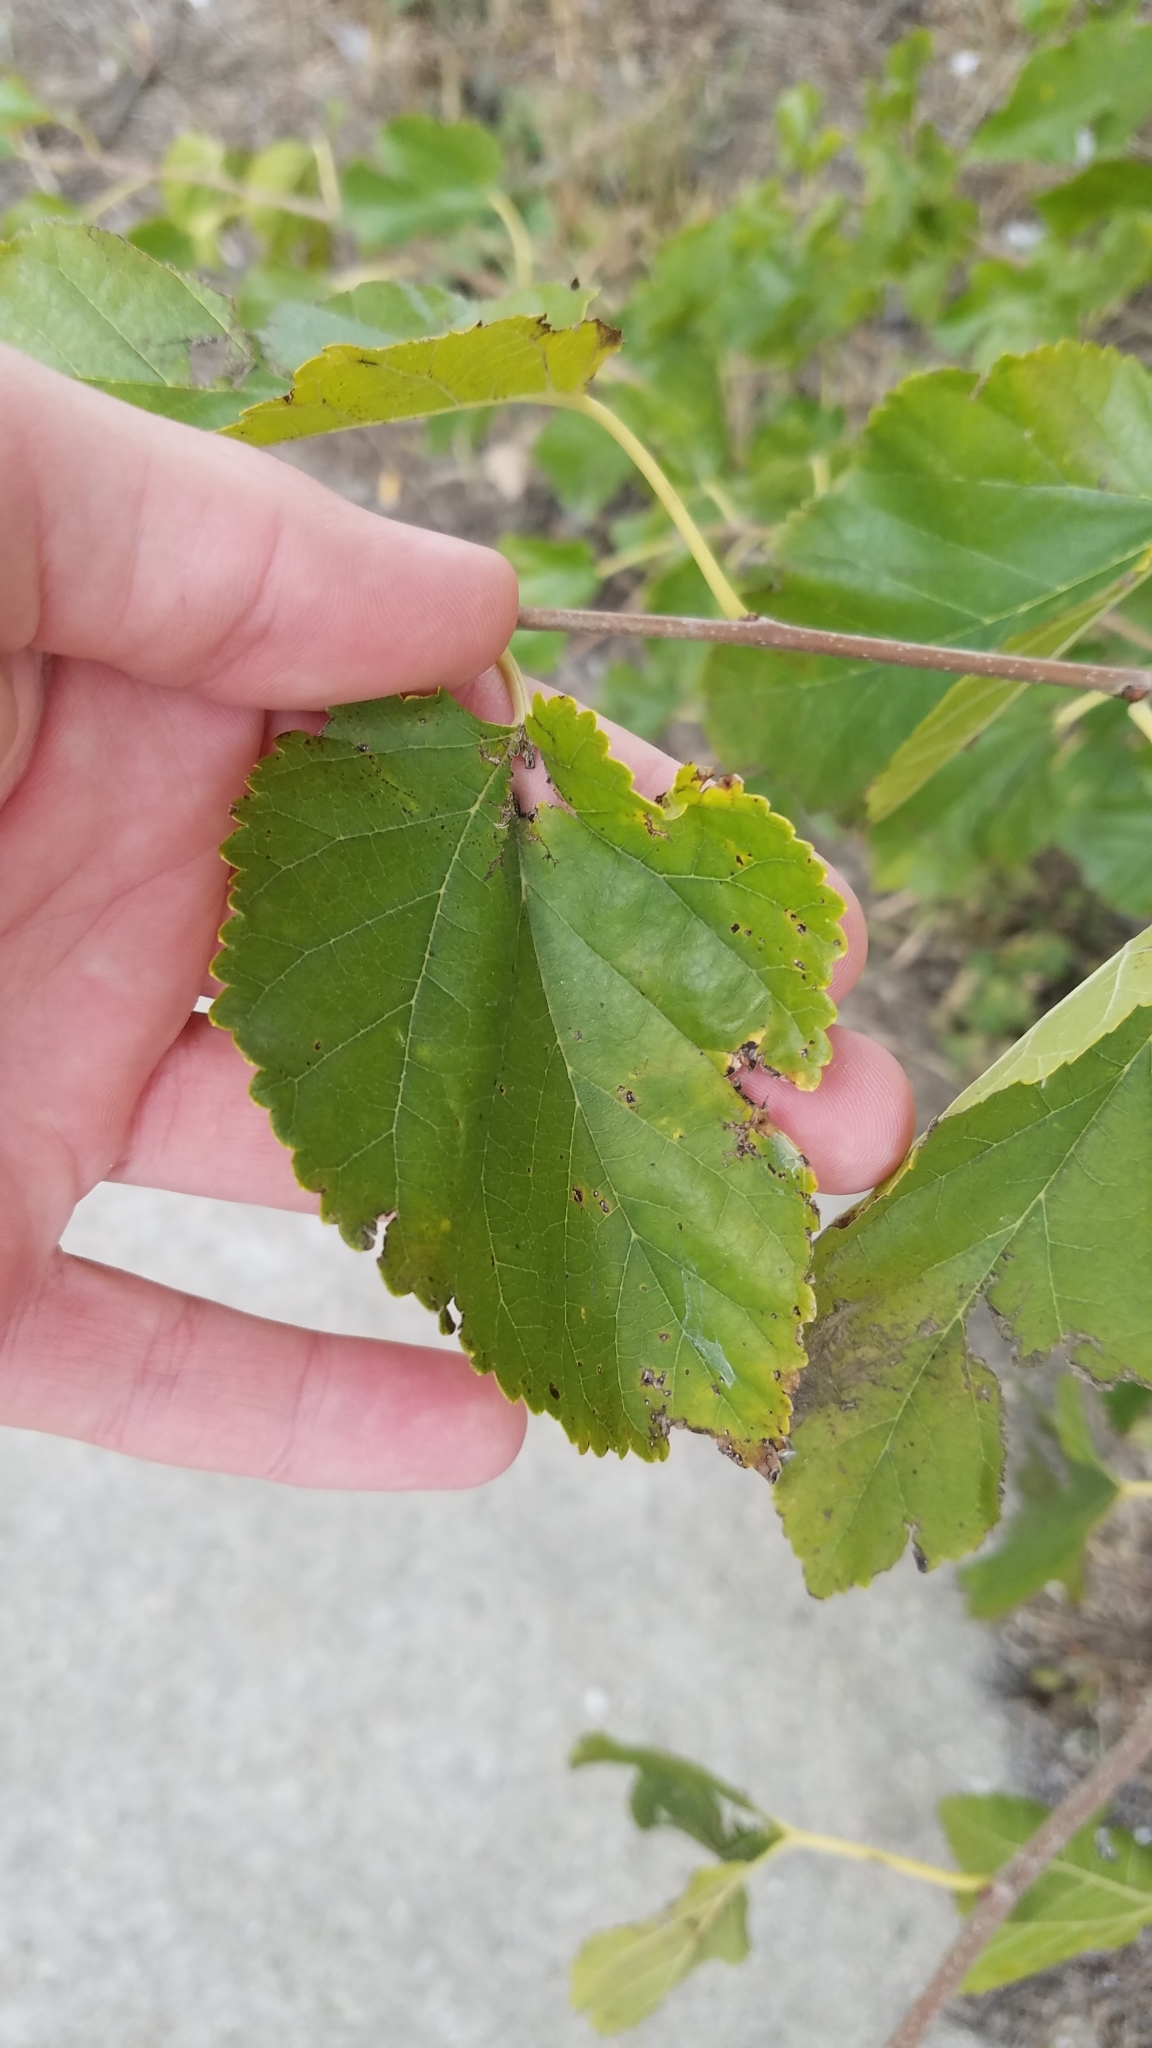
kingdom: Plantae
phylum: Tracheophyta
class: Magnoliopsida
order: Rosales
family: Moraceae
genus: Morus
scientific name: Morus alba
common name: White mulberry
